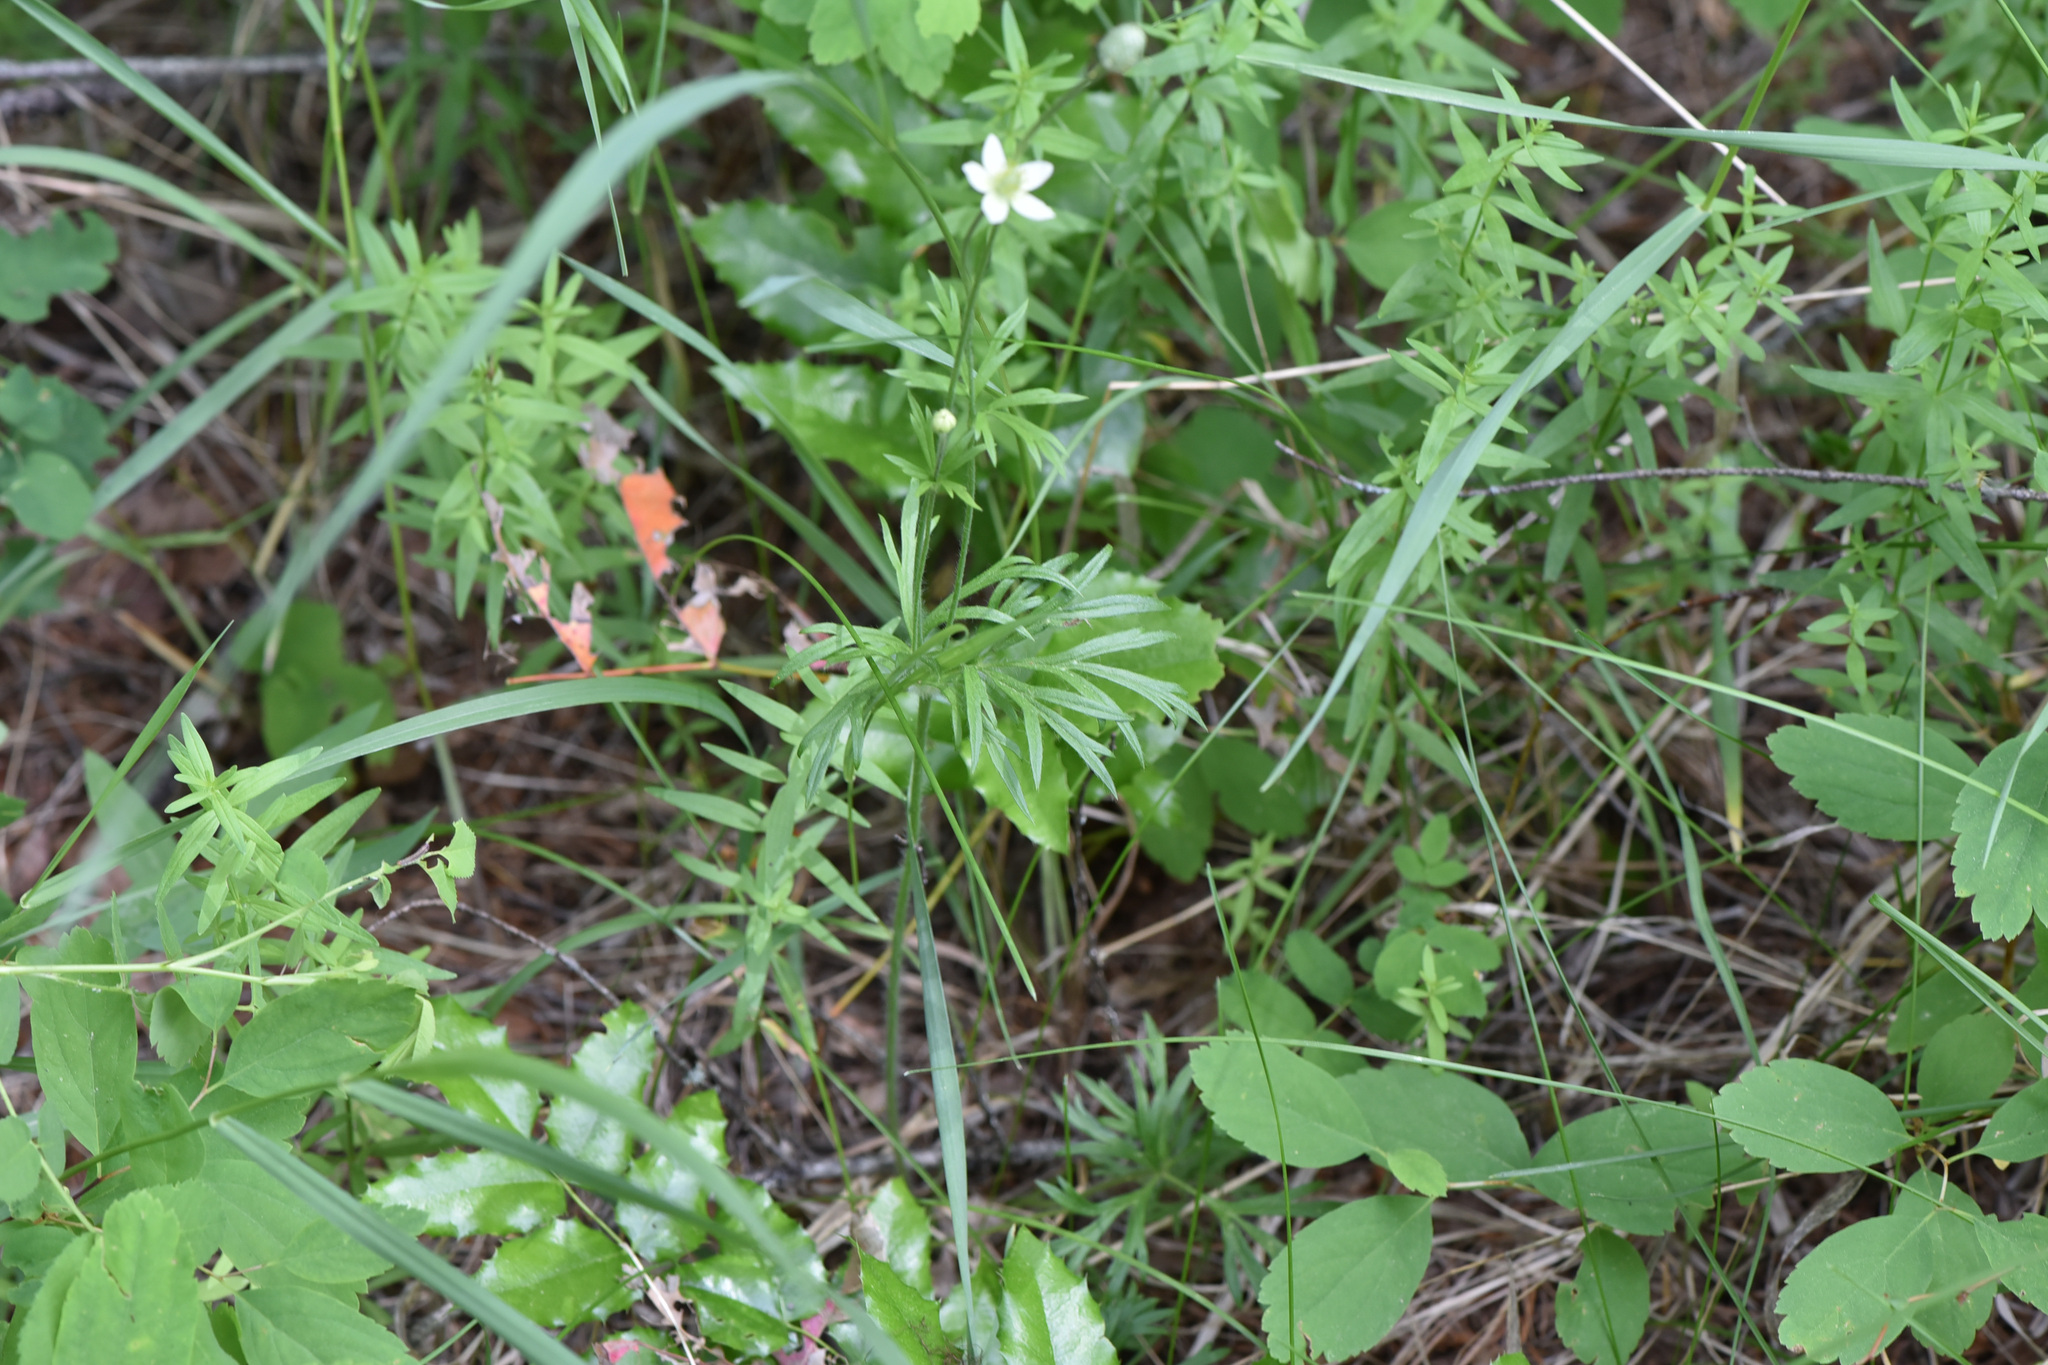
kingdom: Plantae
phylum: Tracheophyta
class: Magnoliopsida
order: Ranunculales
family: Ranunculaceae
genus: Anemone
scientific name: Anemone multifida
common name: Bird's-foot anemone
